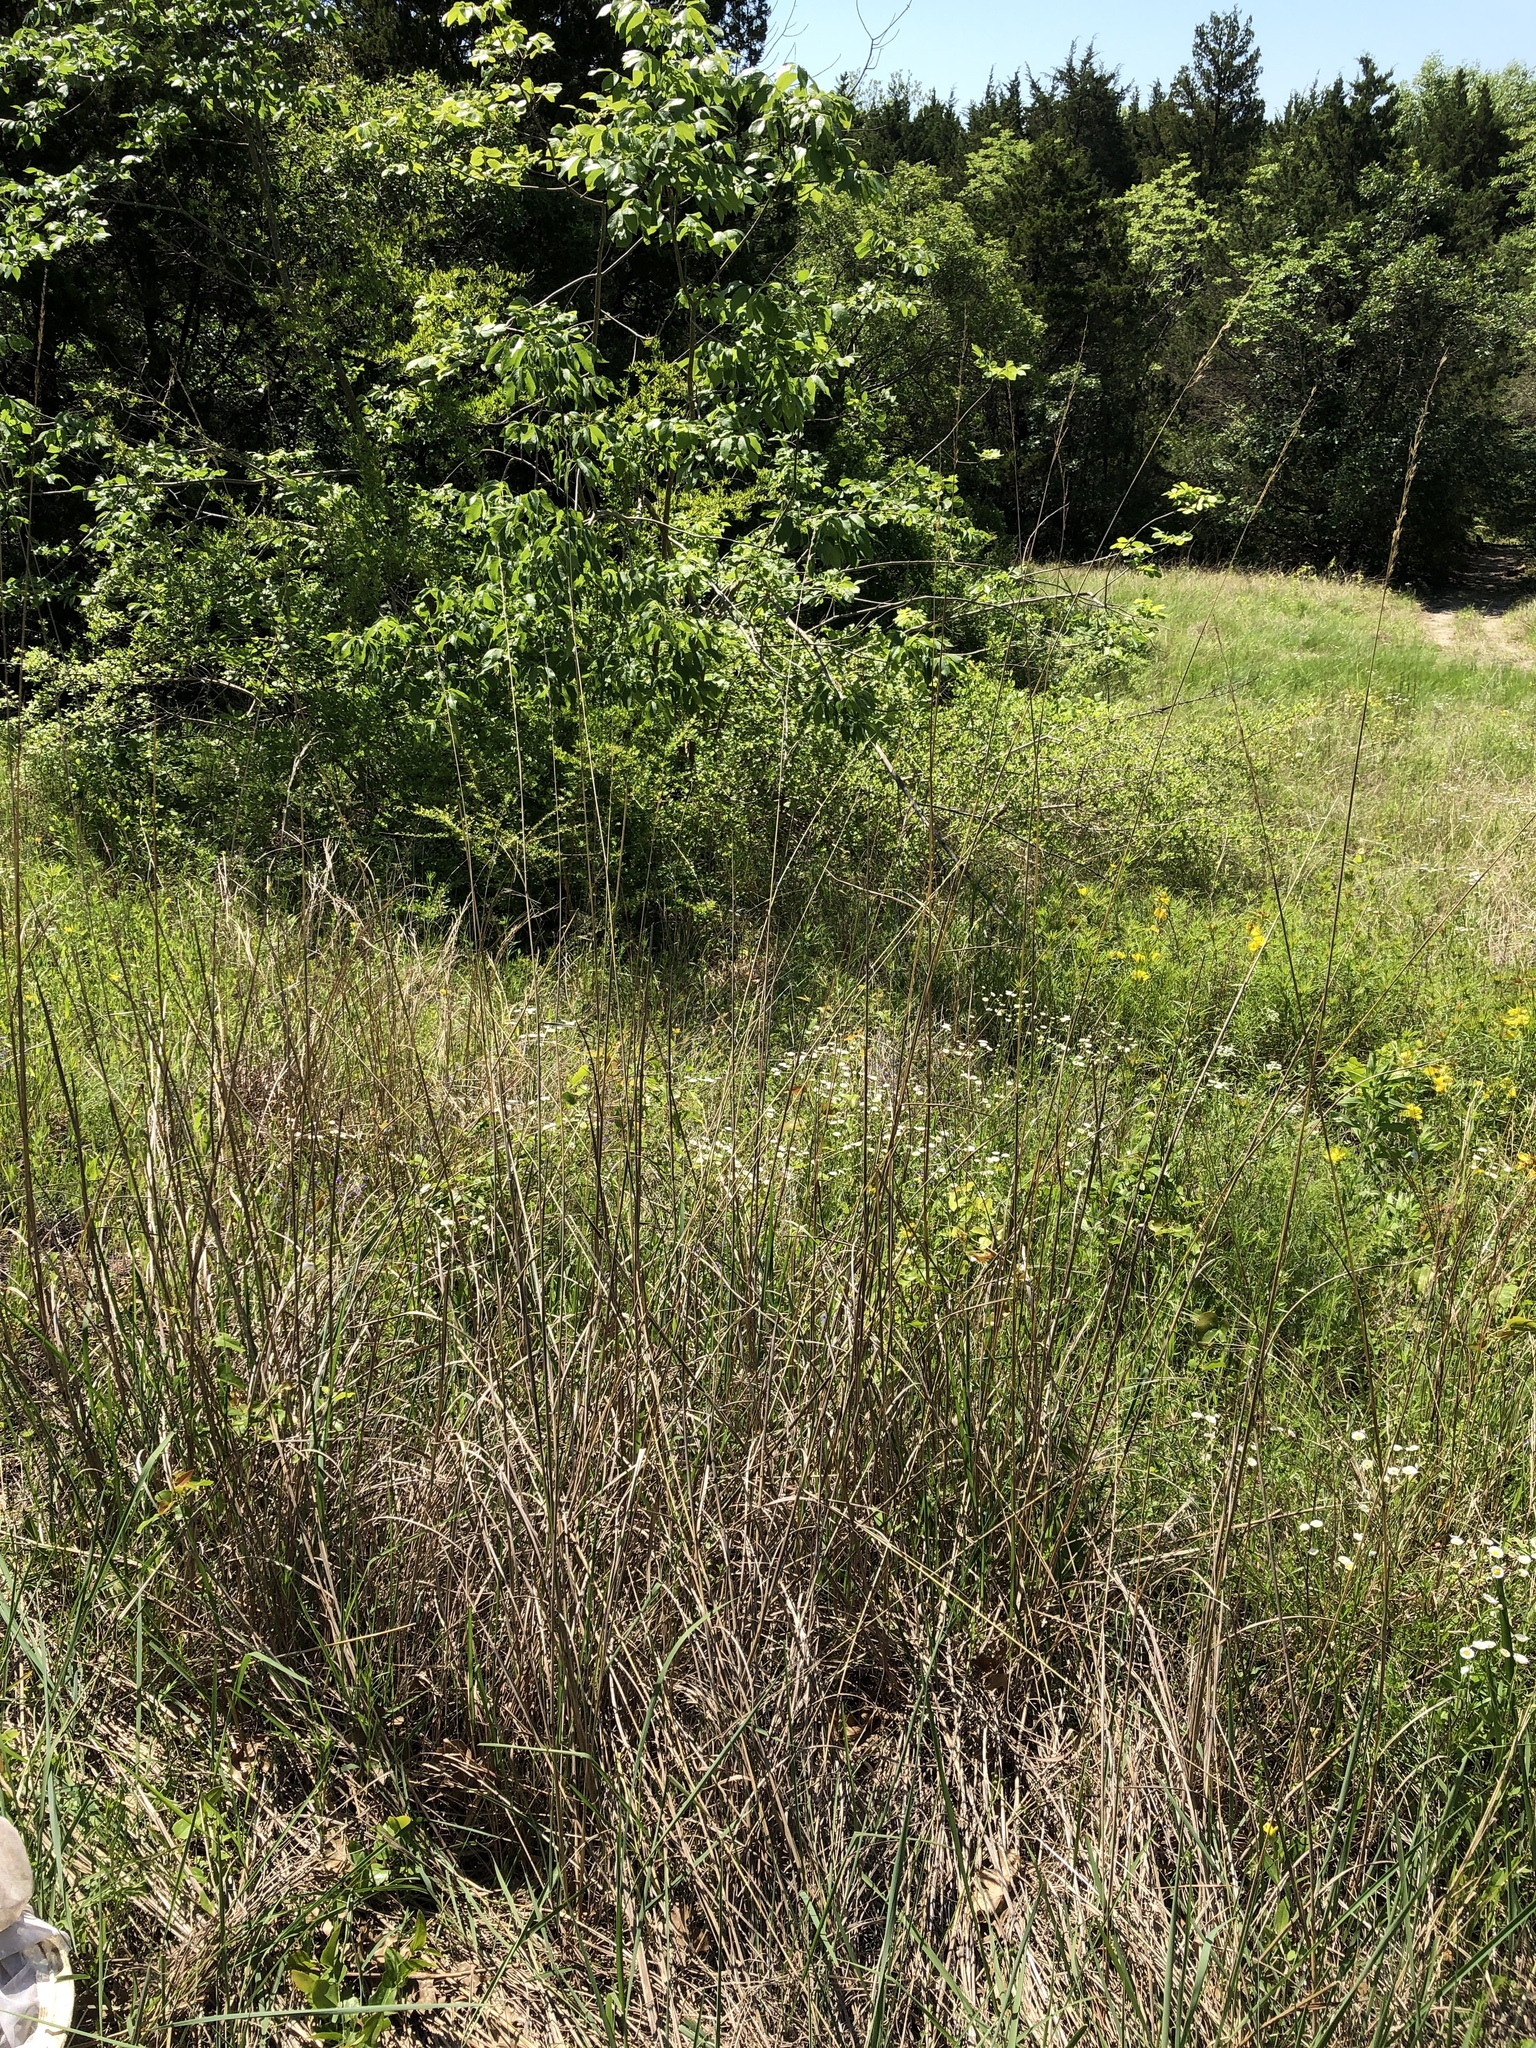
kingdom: Plantae
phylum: Tracheophyta
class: Liliopsida
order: Poales
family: Poaceae
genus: Sorghastrum
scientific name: Sorghastrum nutans
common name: Indian grass
